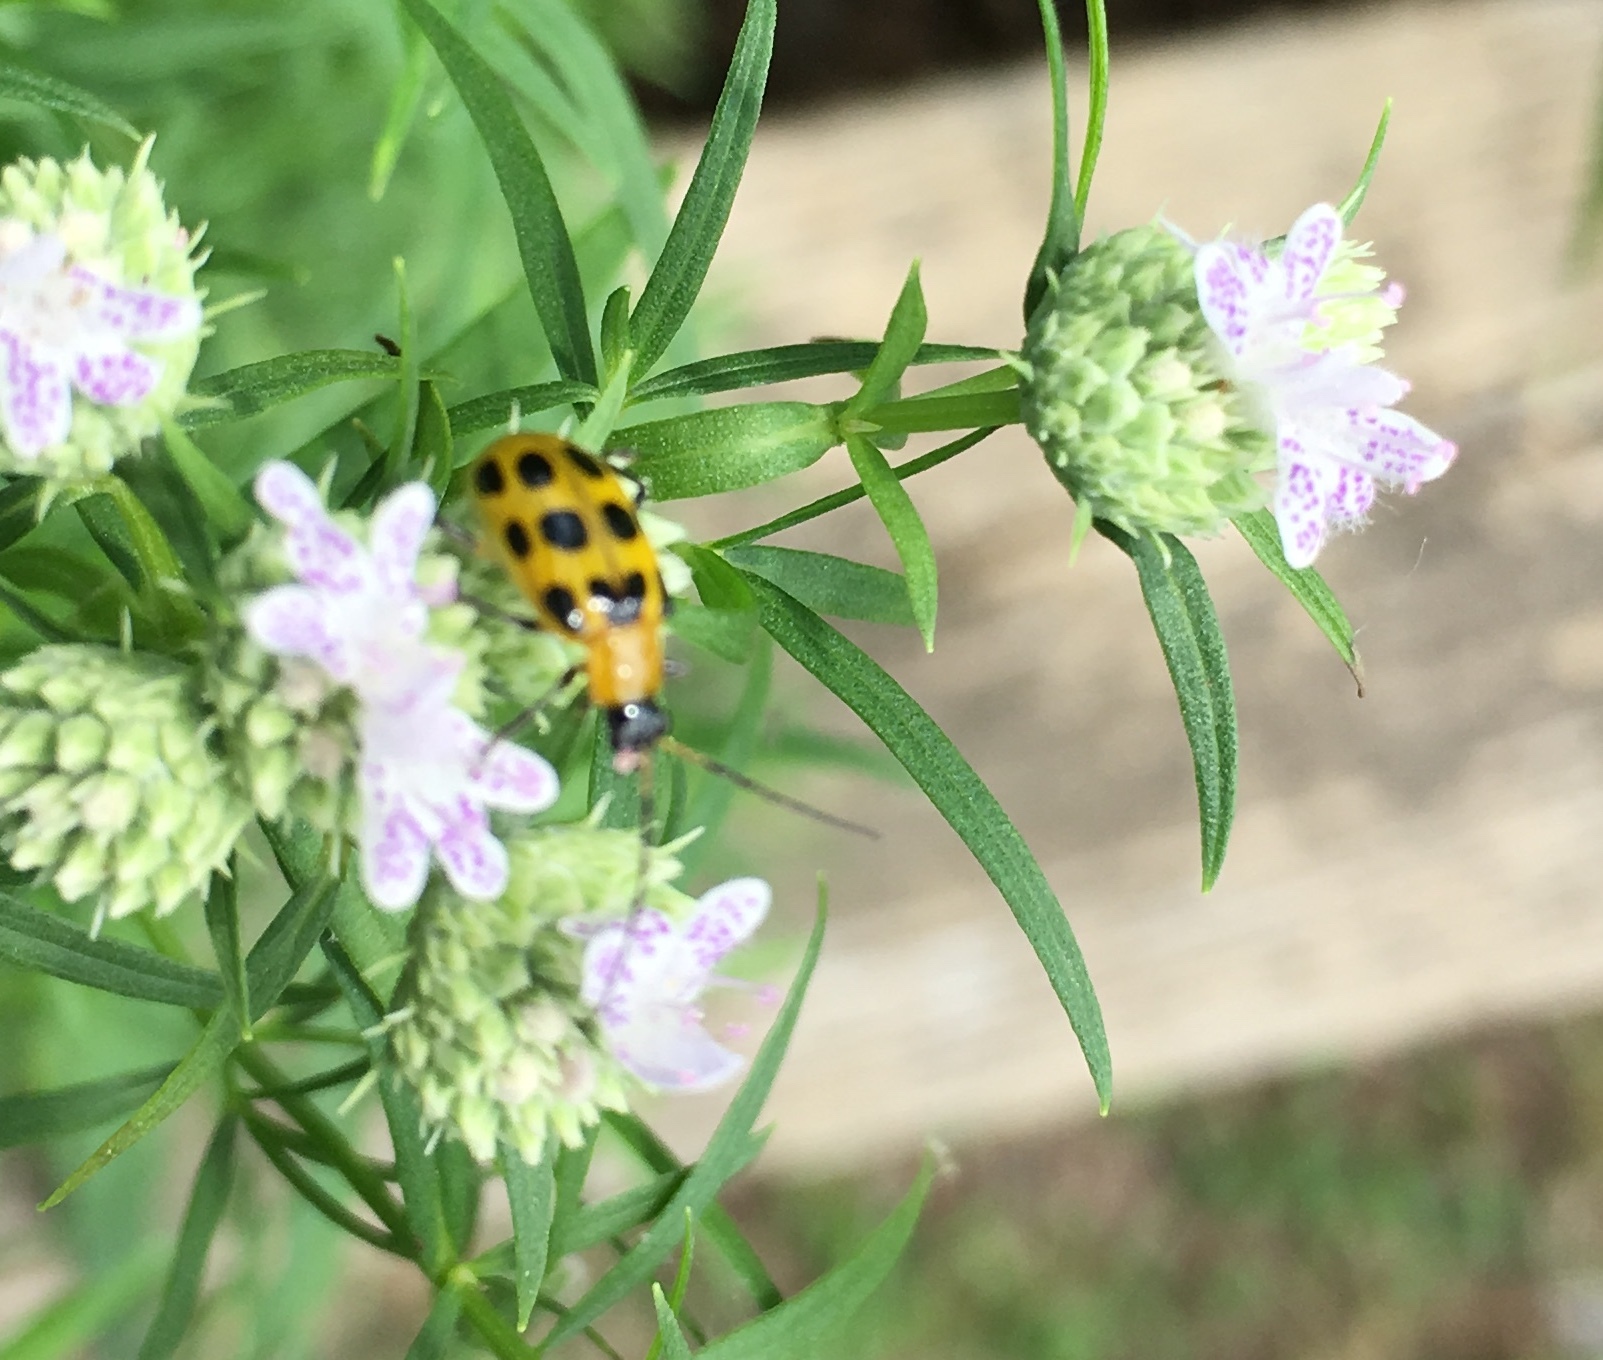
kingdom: Animalia
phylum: Arthropoda
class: Insecta
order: Coleoptera
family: Chrysomelidae
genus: Diabrotica
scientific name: Diabrotica undecimpunctata
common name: Spotted cucumber beetle
